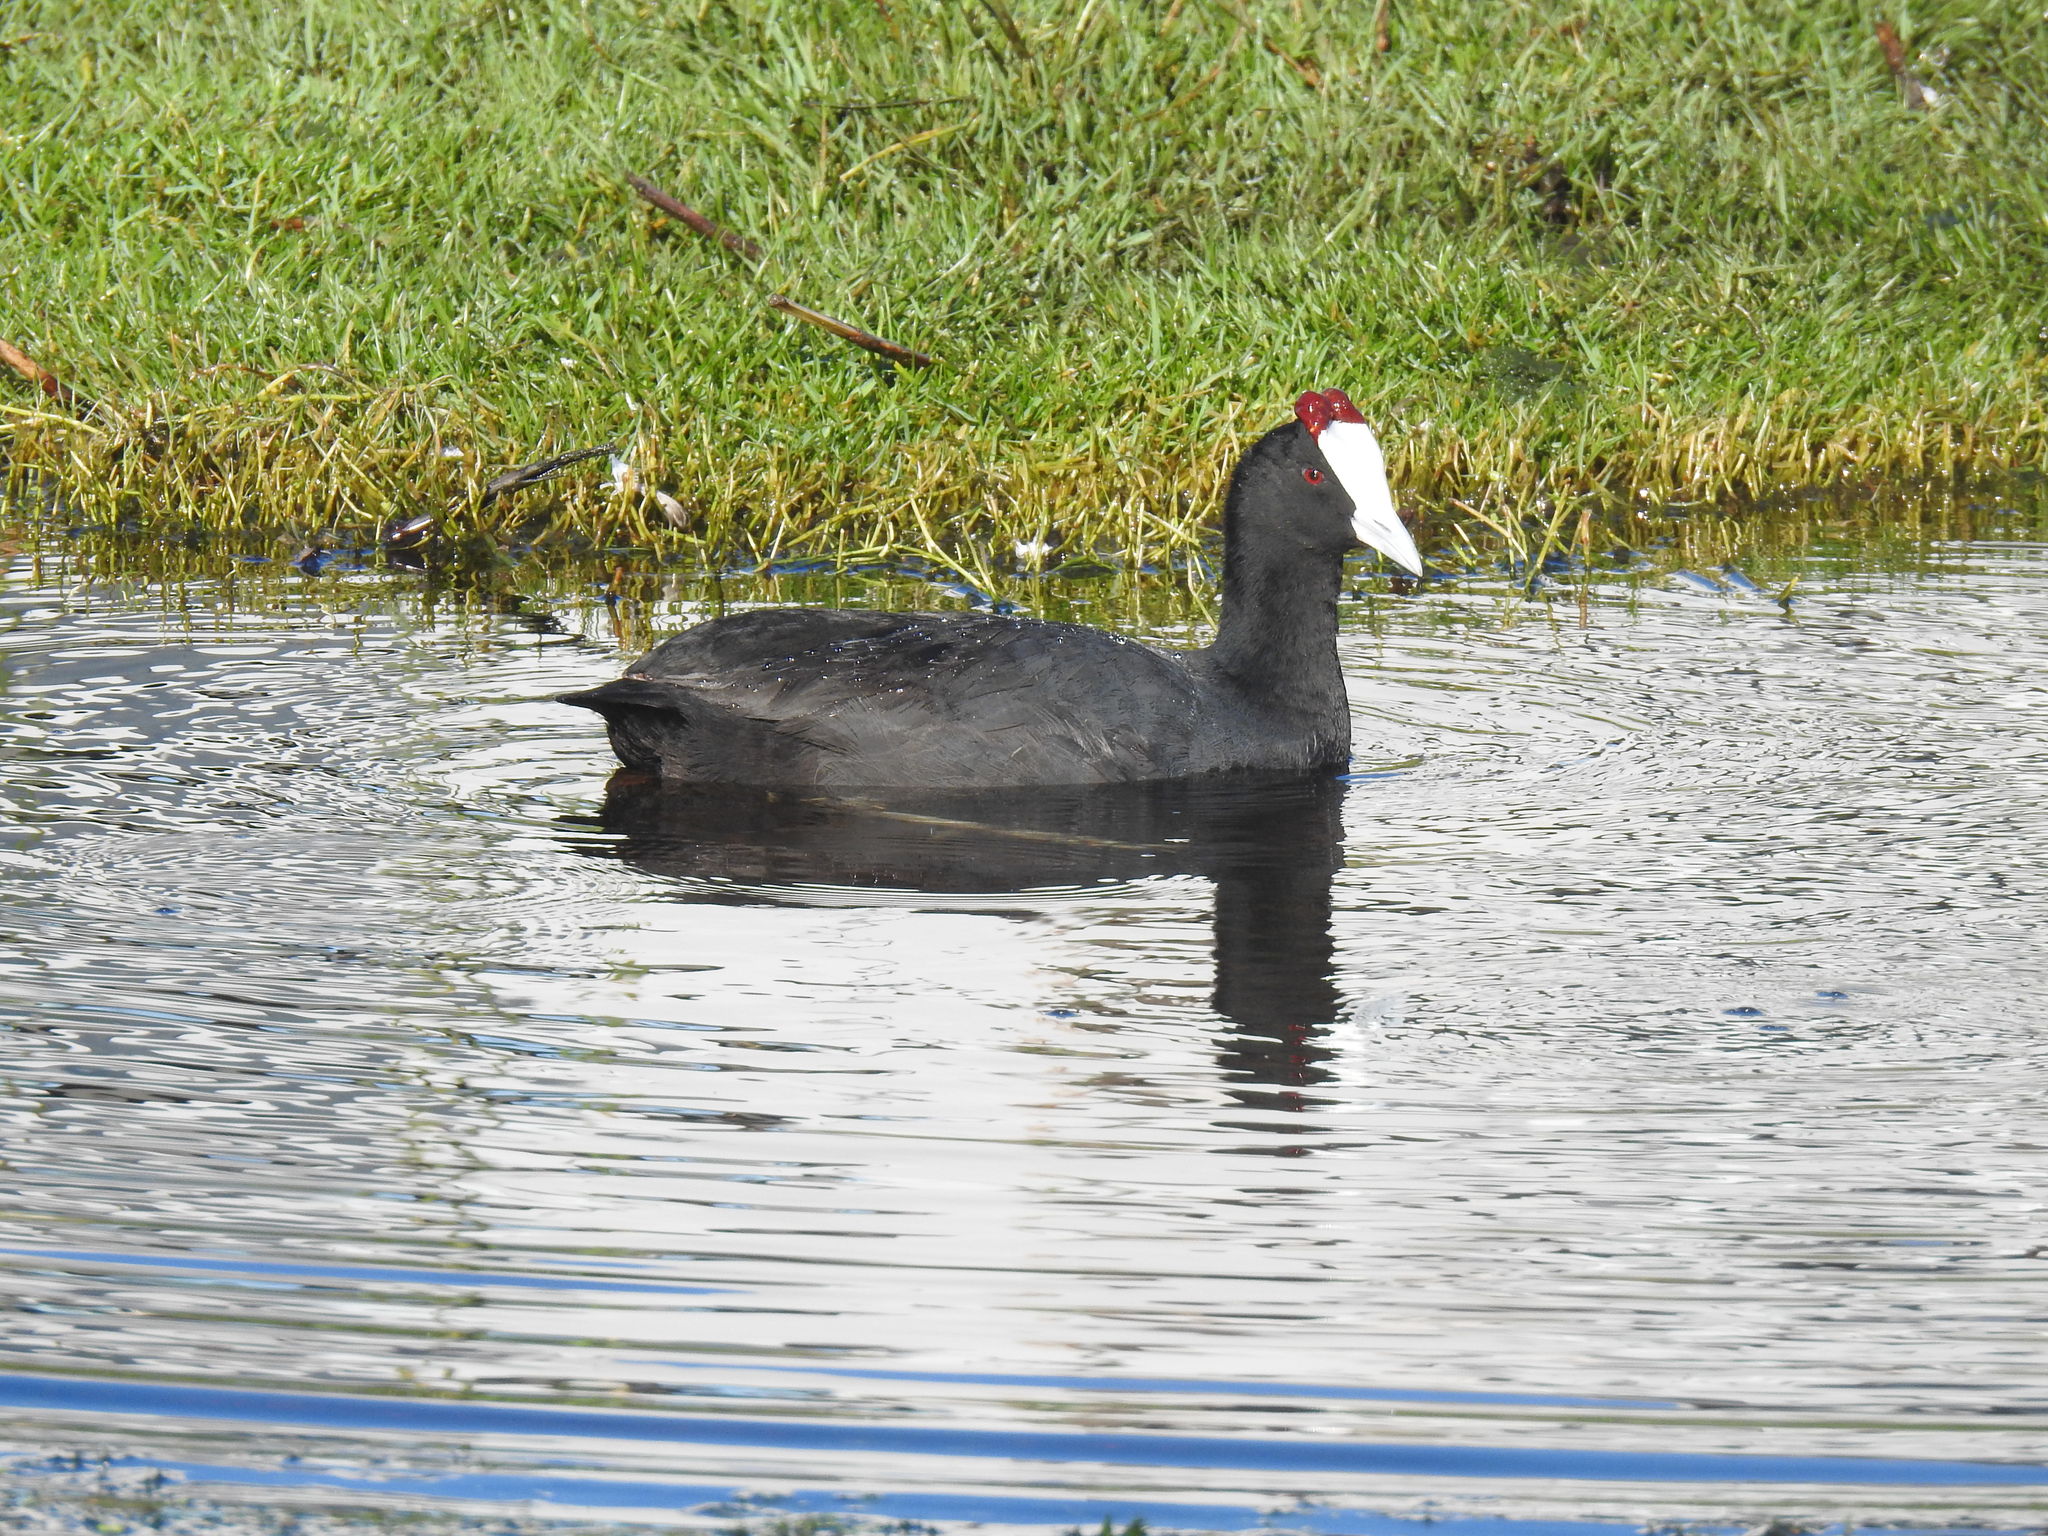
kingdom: Animalia
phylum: Chordata
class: Aves
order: Gruiformes
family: Rallidae
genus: Fulica
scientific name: Fulica cristata
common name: Red-knobbed coot
